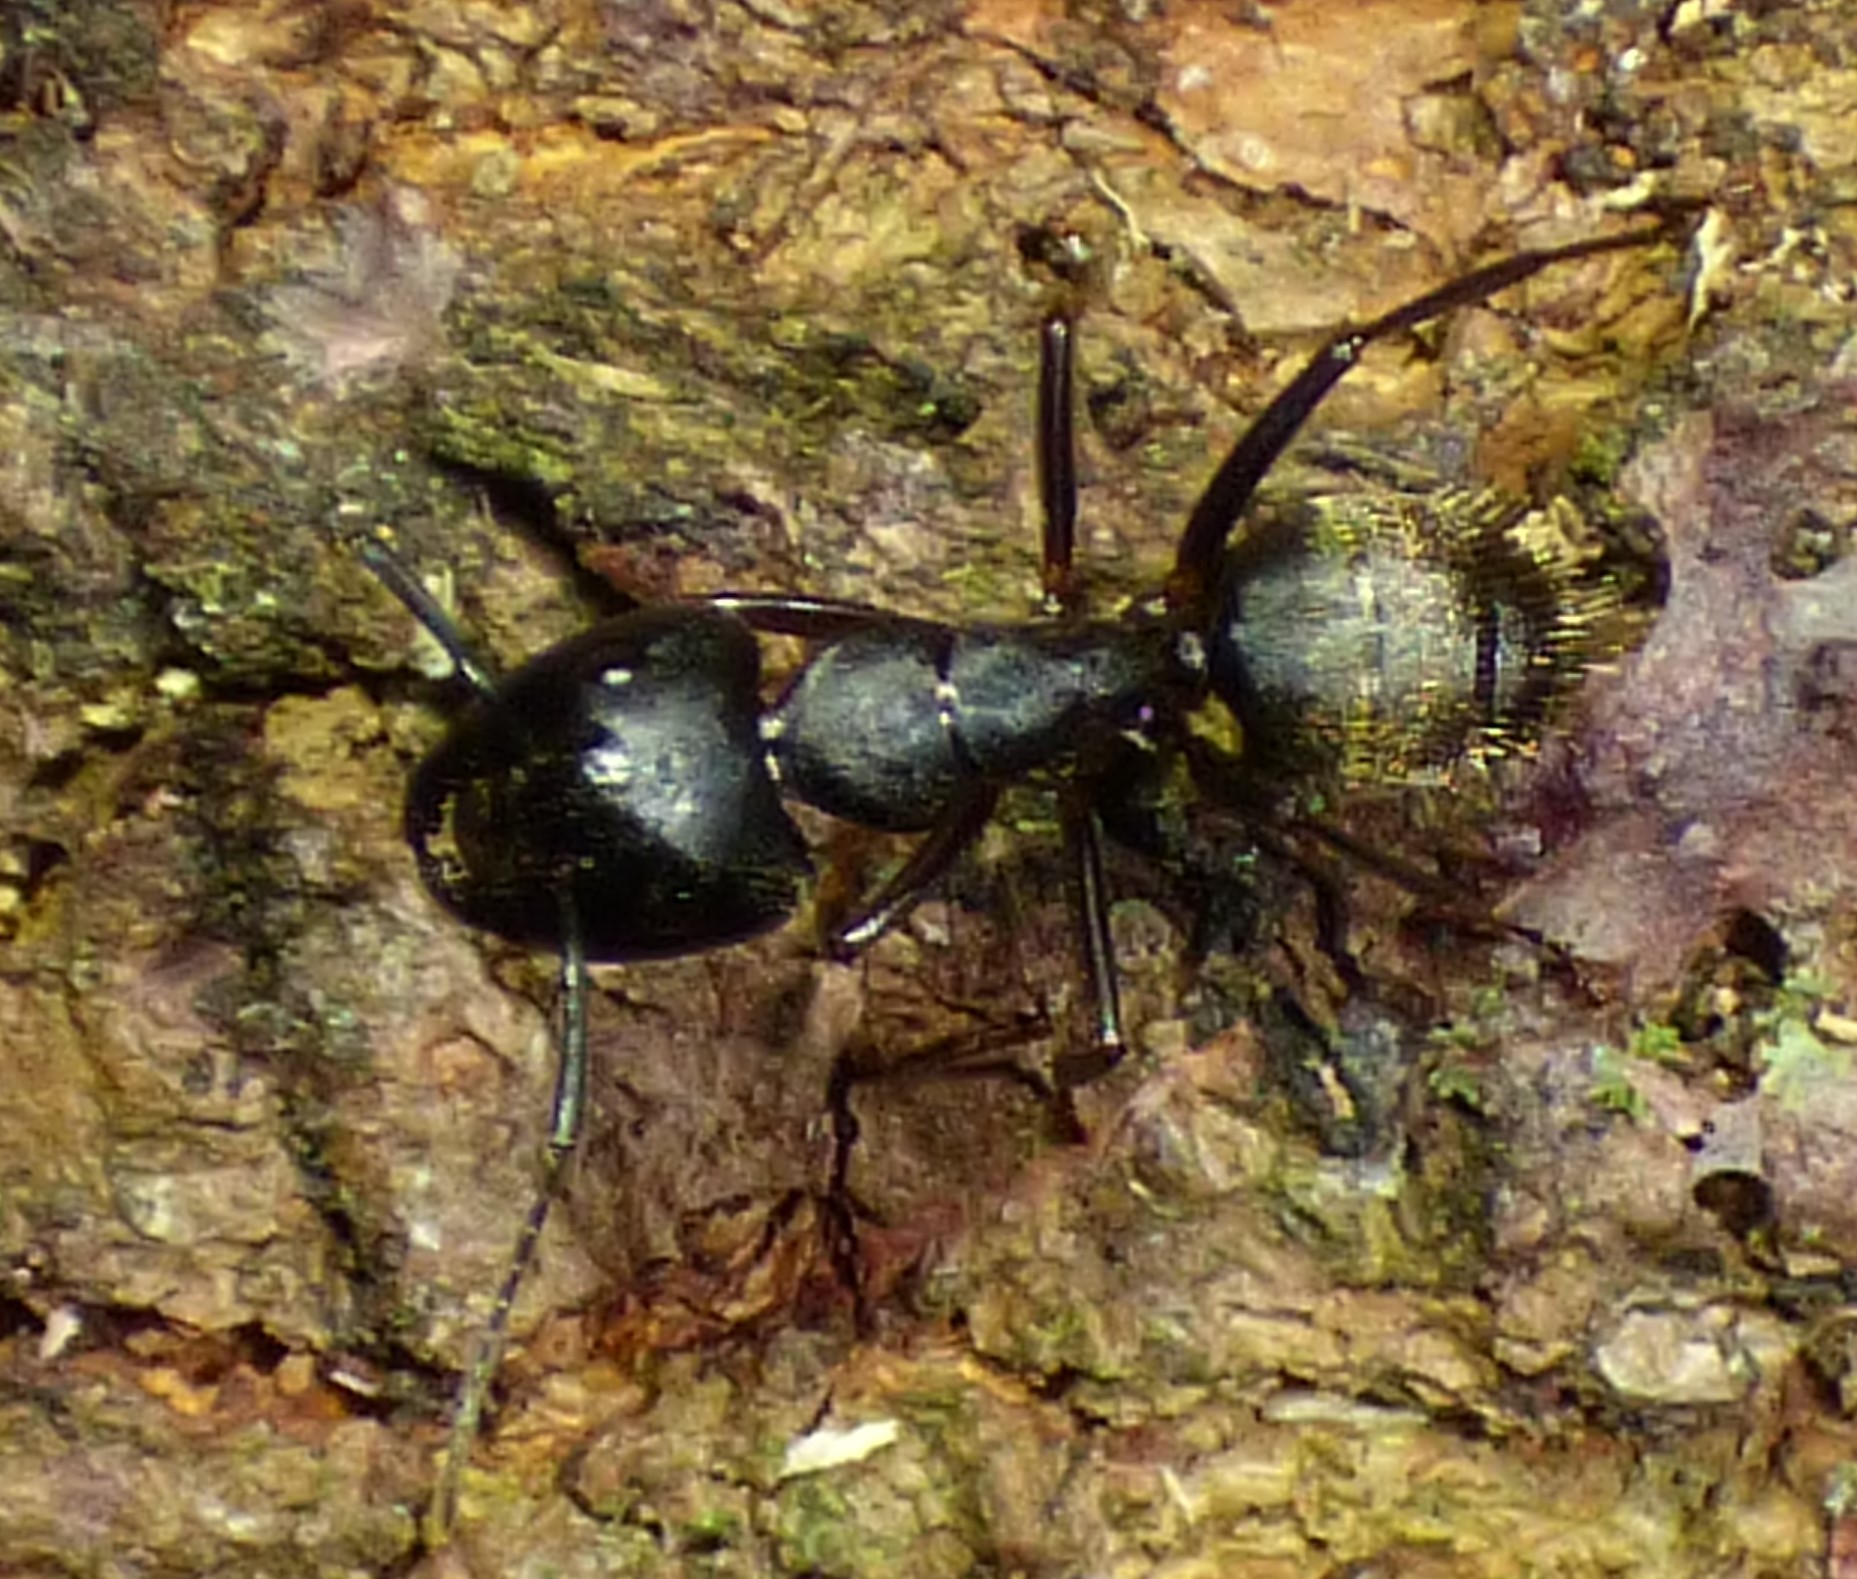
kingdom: Animalia
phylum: Arthropoda
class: Insecta
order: Hymenoptera
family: Formicidae
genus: Camponotus
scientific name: Camponotus pennsylvanicus
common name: Black carpenter ant
